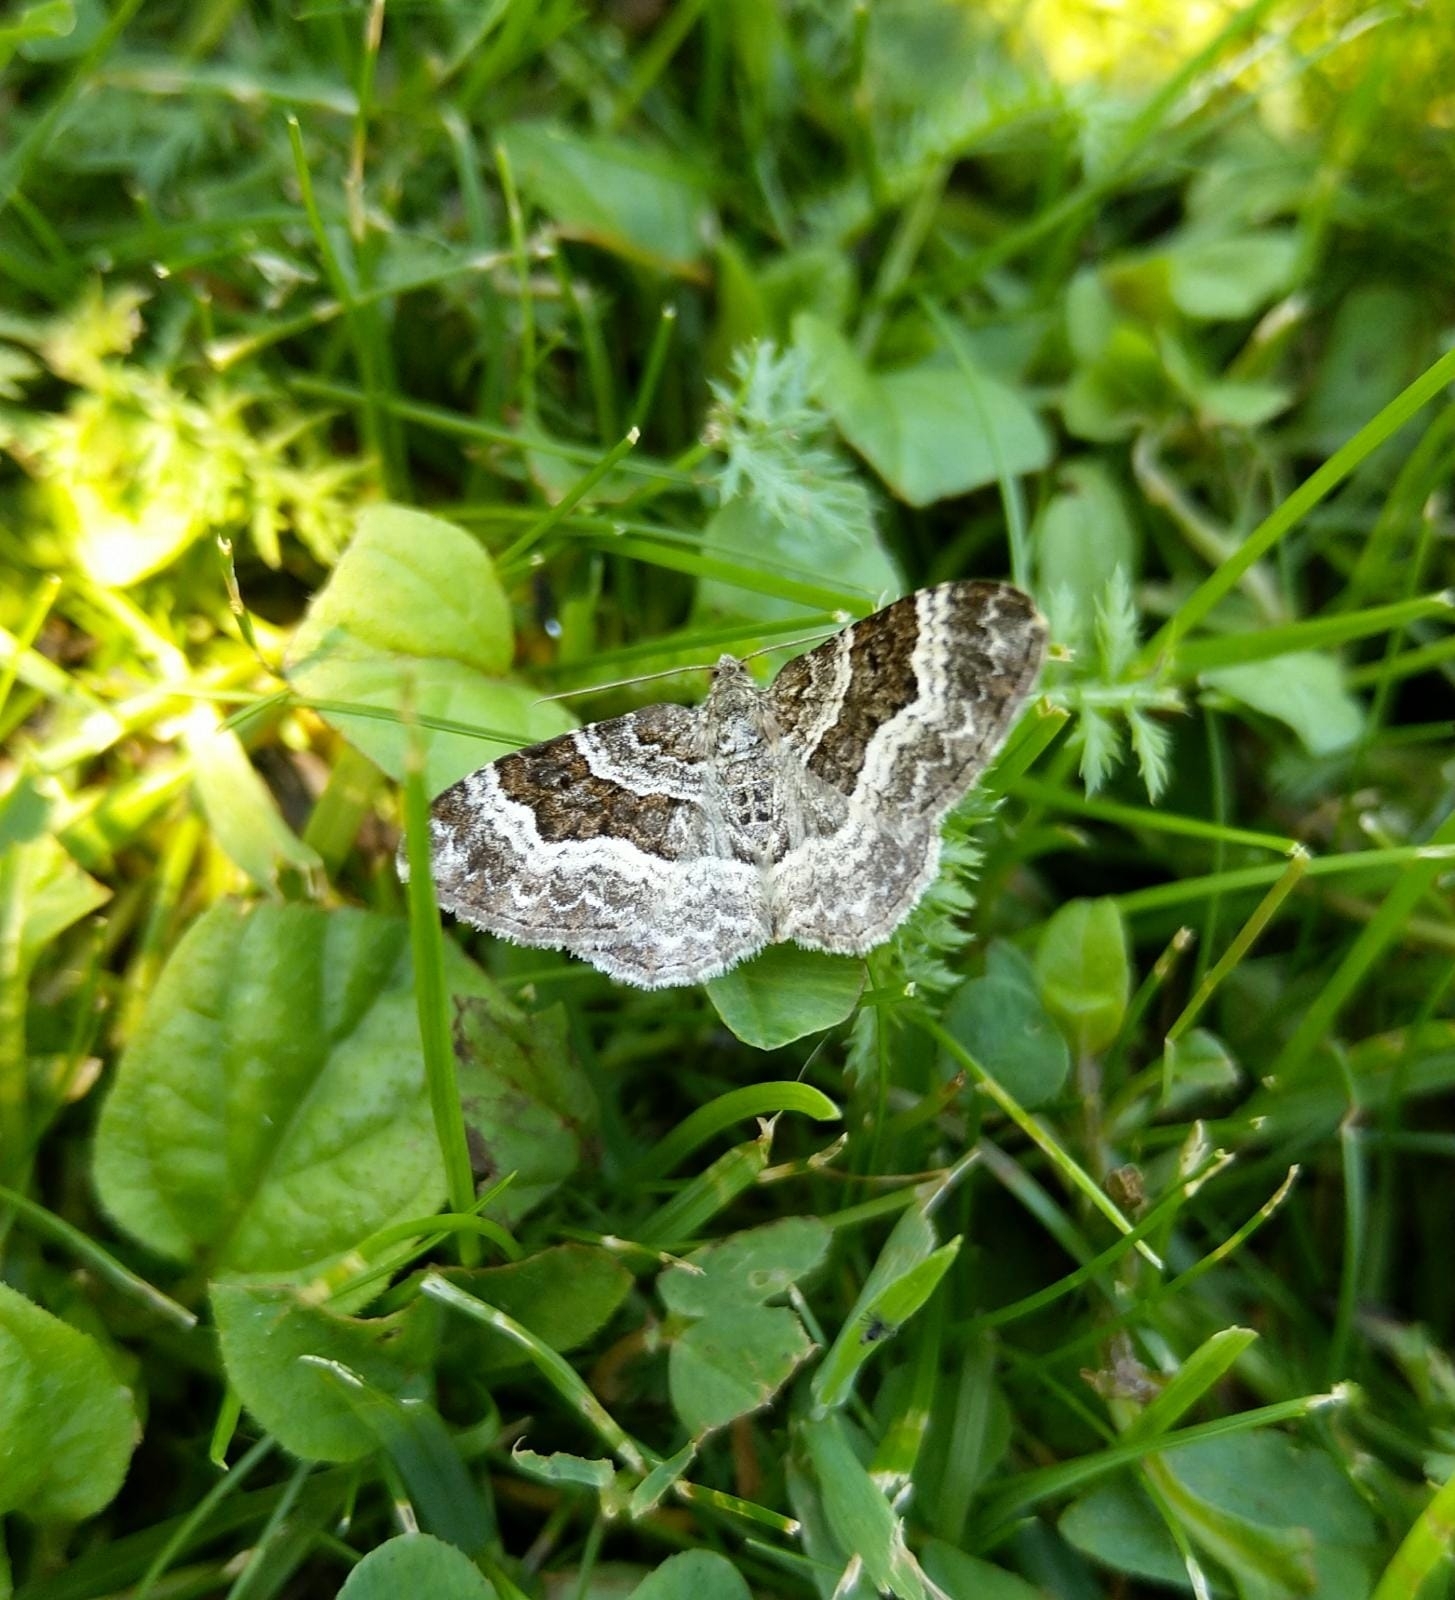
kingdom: Animalia
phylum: Arthropoda
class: Insecta
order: Lepidoptera
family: Geometridae
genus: Epirrhoe
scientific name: Epirrhoe alternata
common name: Common carpet
